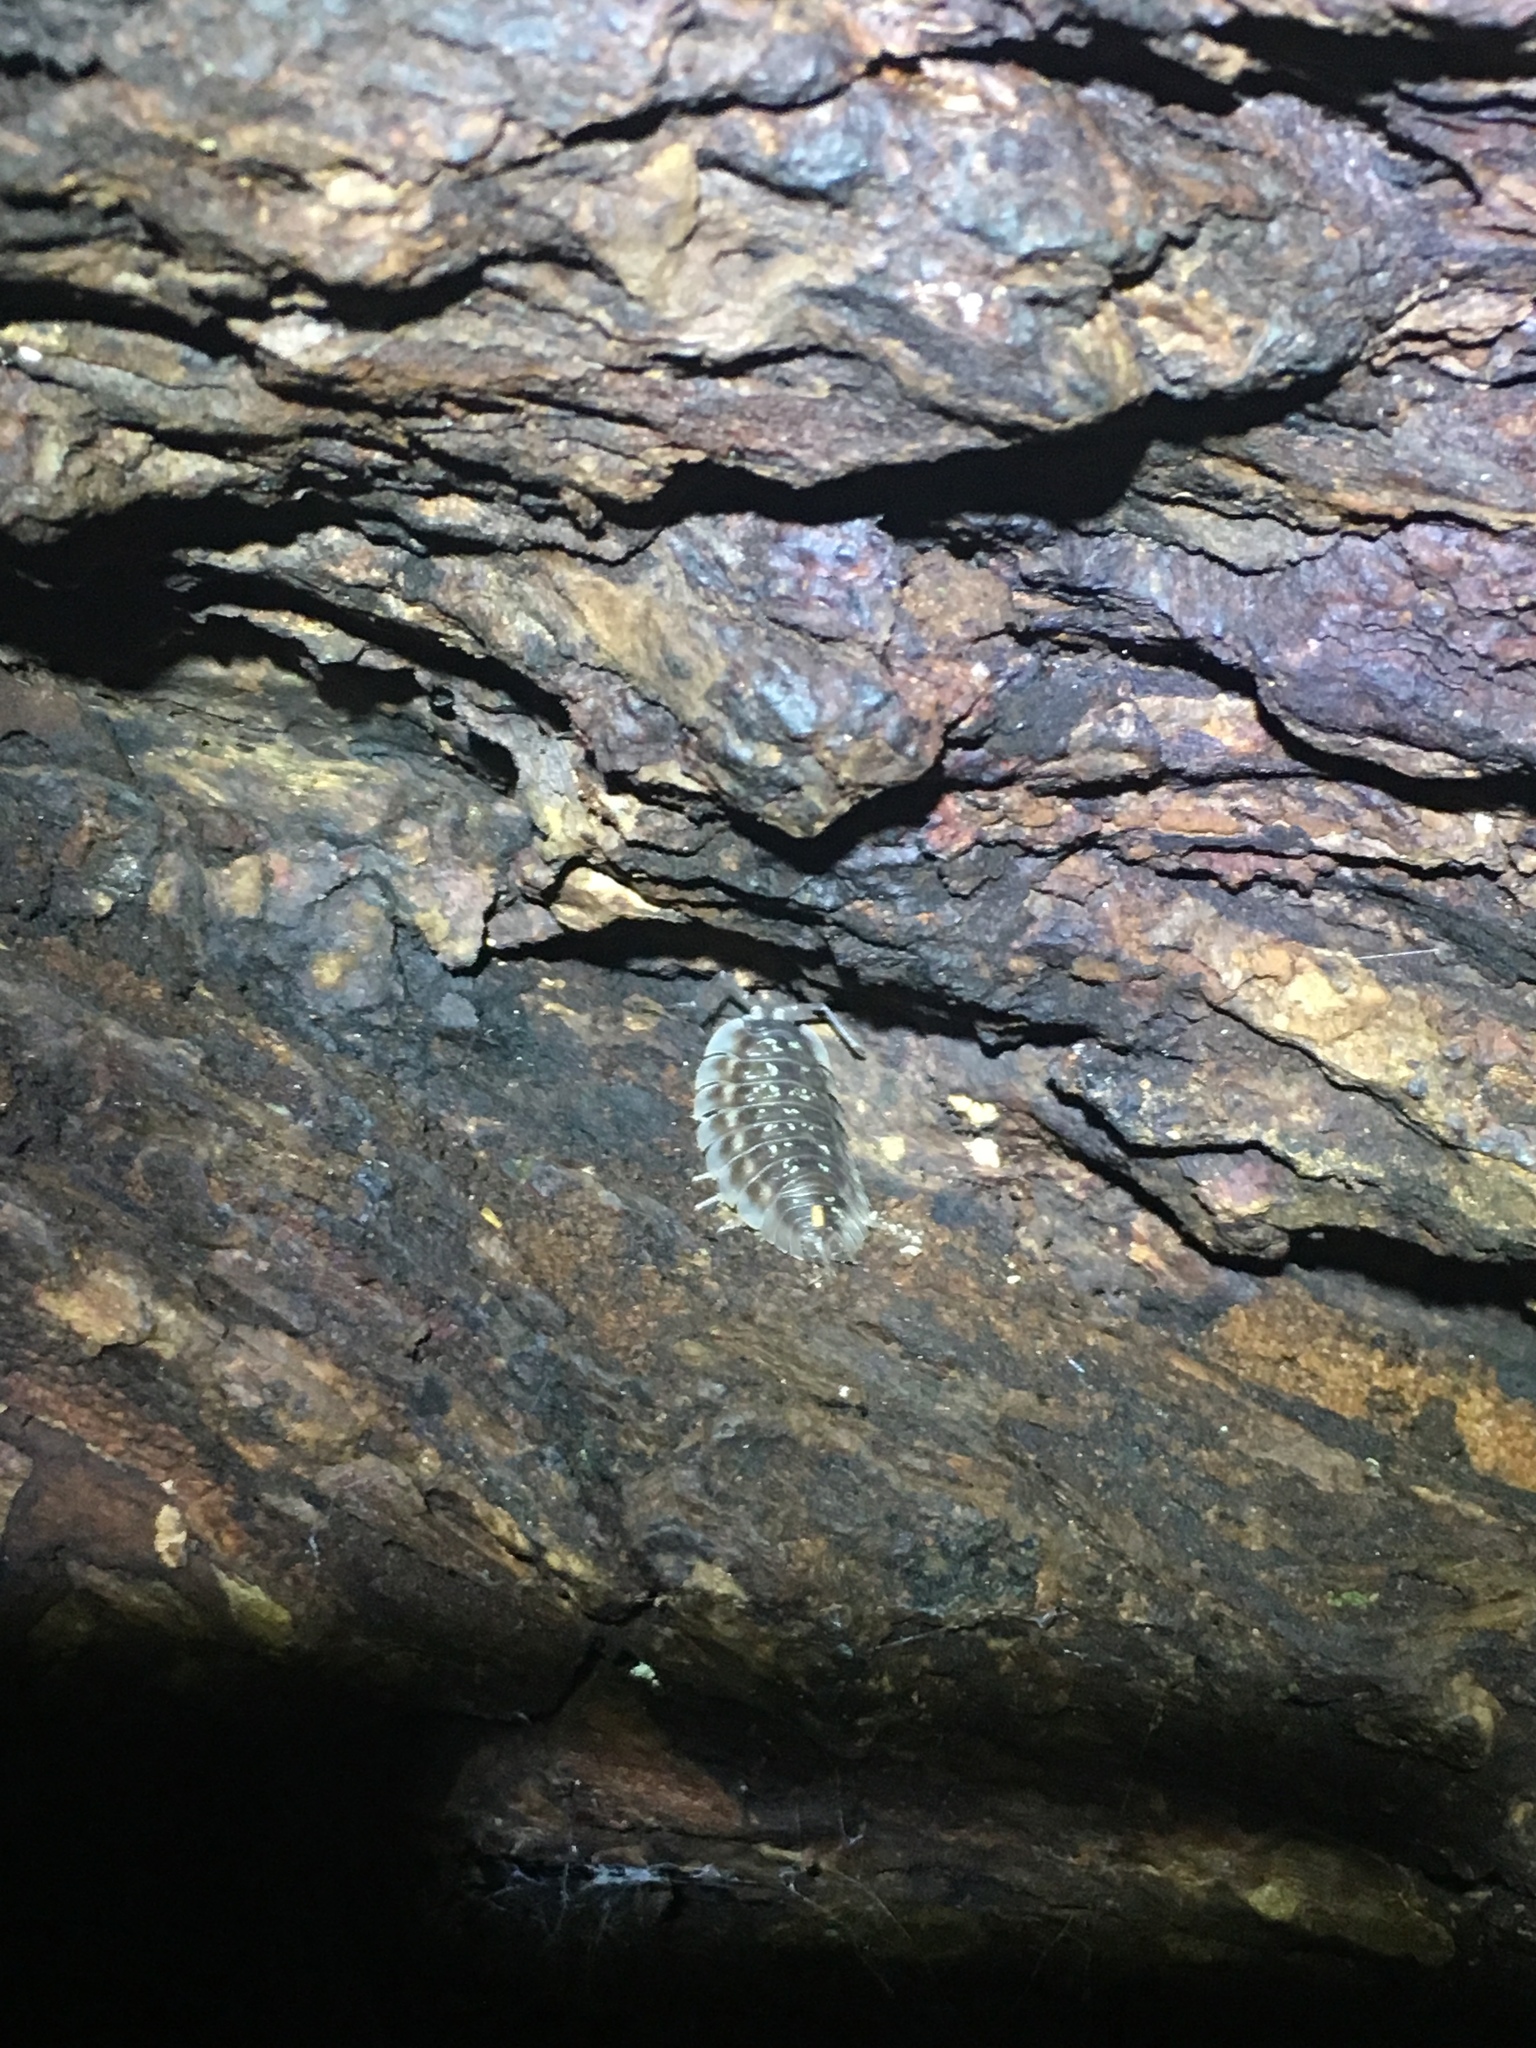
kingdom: Animalia
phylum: Arthropoda
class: Malacostraca
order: Isopoda
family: Oniscidae
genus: Oniscus
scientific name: Oniscus asellus
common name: Common shiny woodlouse
